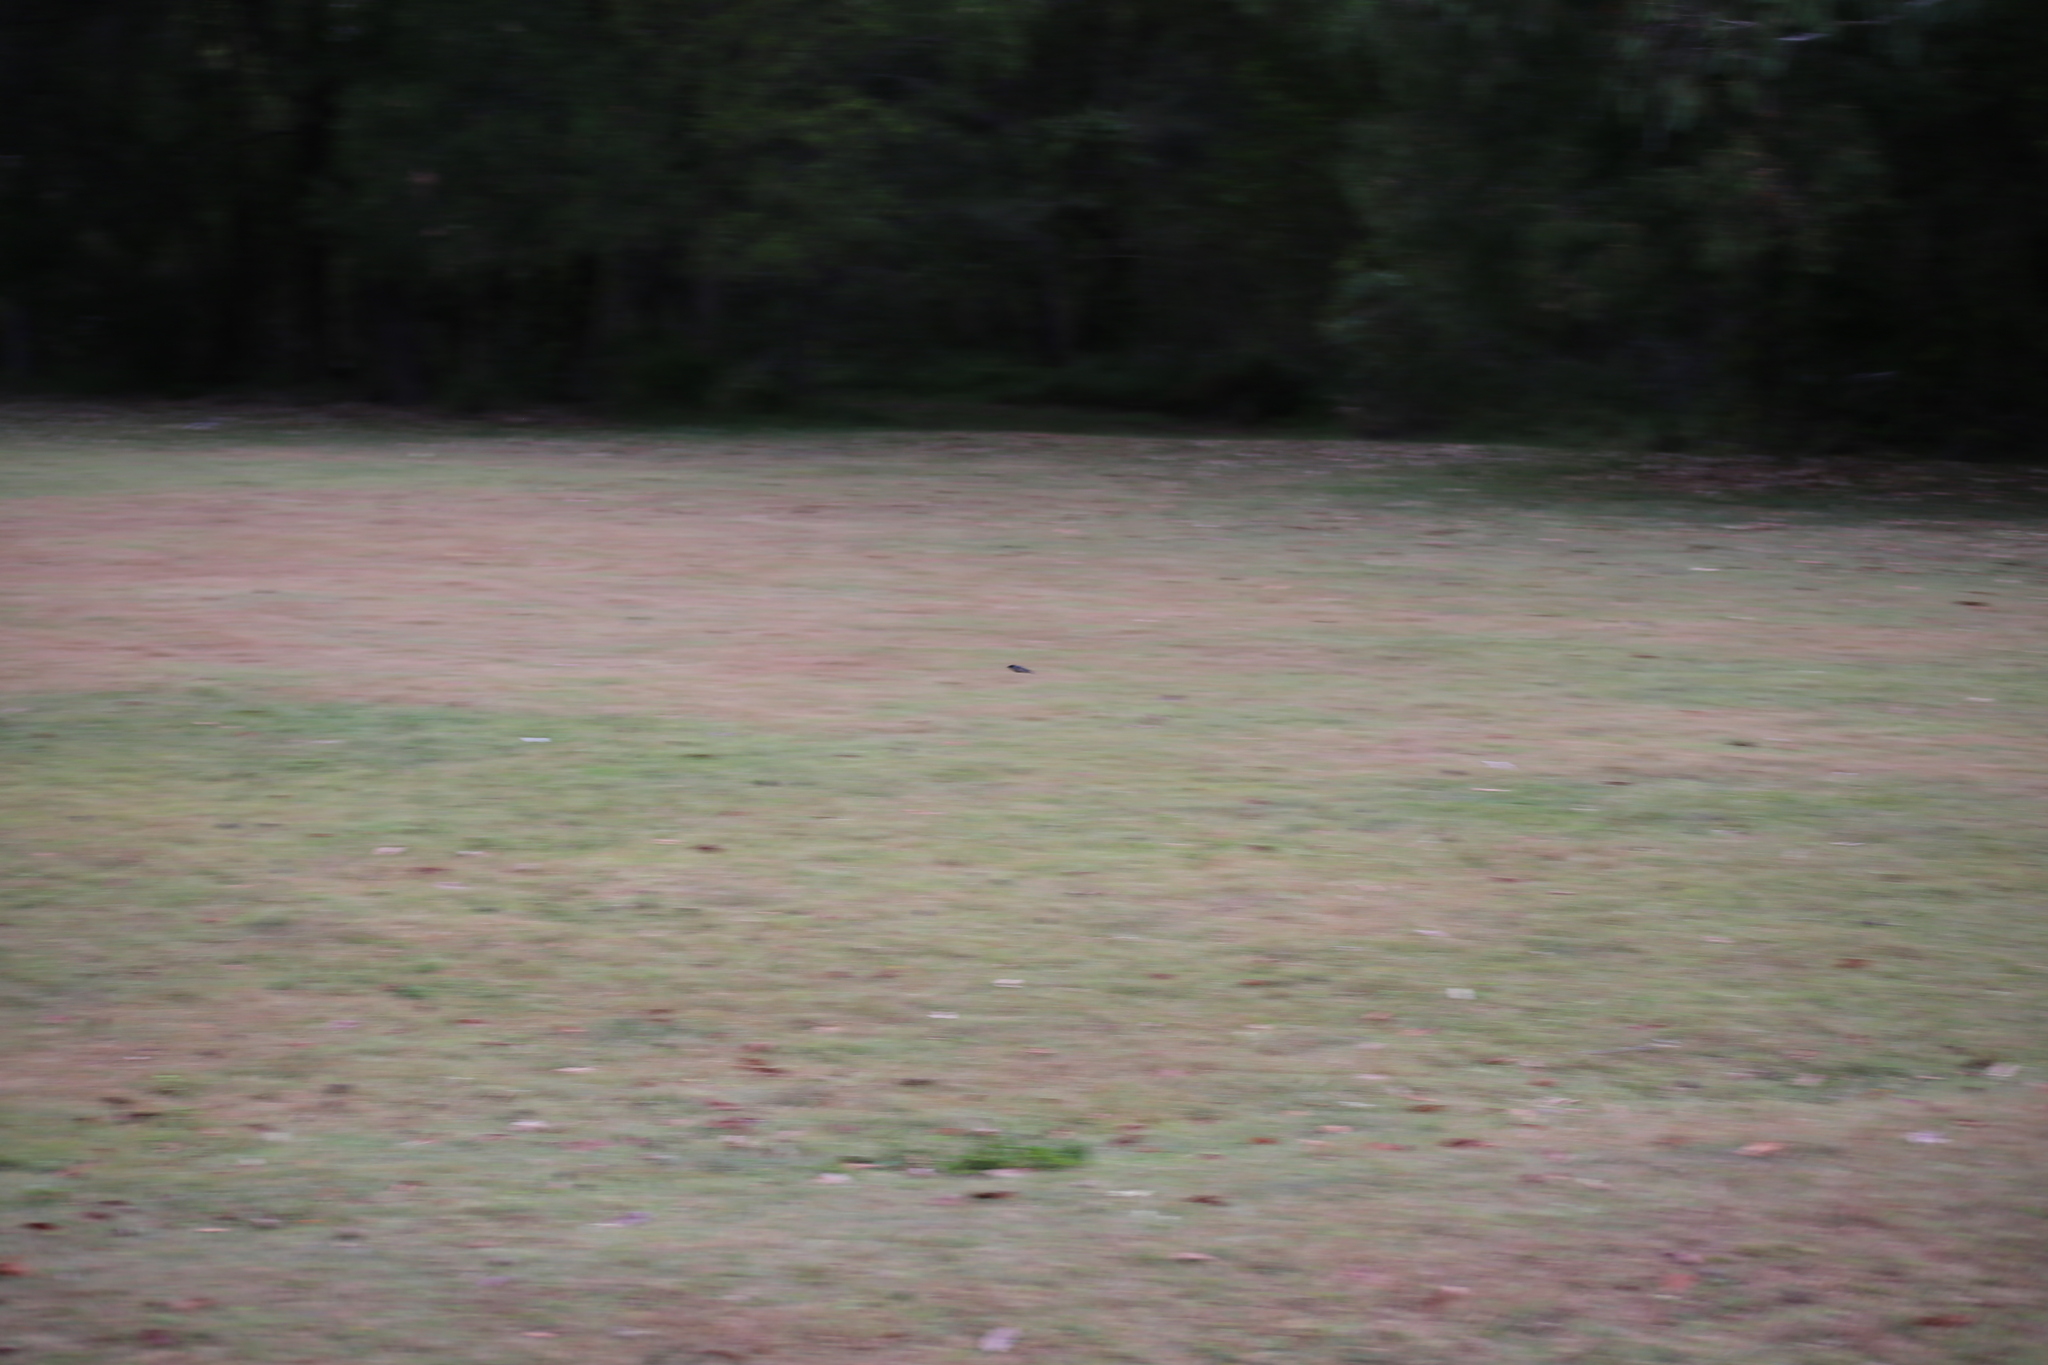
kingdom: Animalia
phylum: Chordata
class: Aves
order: Charadriiformes
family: Charadriidae
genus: Vanellus
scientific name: Vanellus miles
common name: Masked lapwing
